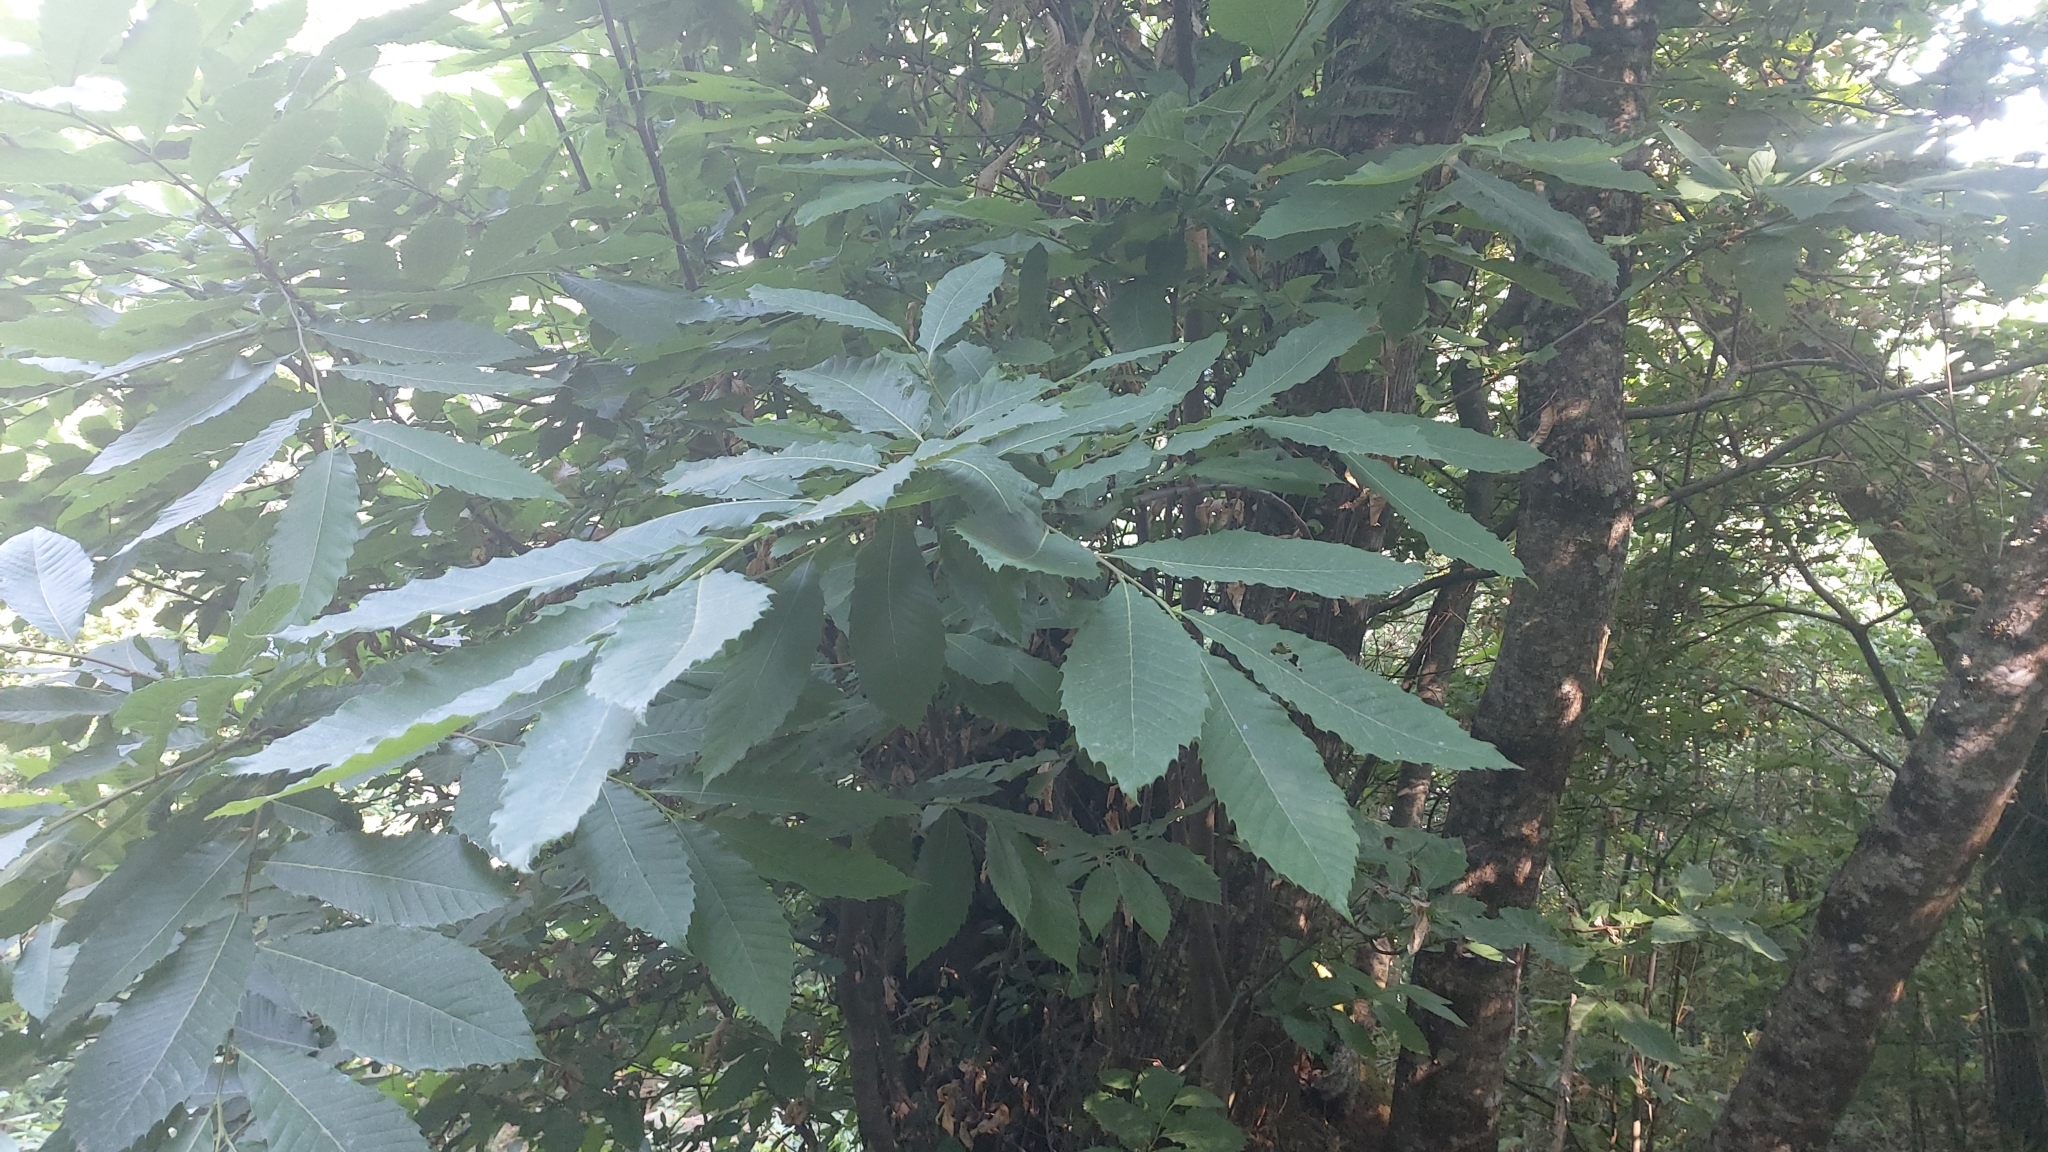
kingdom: Plantae
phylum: Tracheophyta
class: Magnoliopsida
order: Fagales
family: Fagaceae
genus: Castanea
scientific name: Castanea sativa
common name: Sweet chestnut
